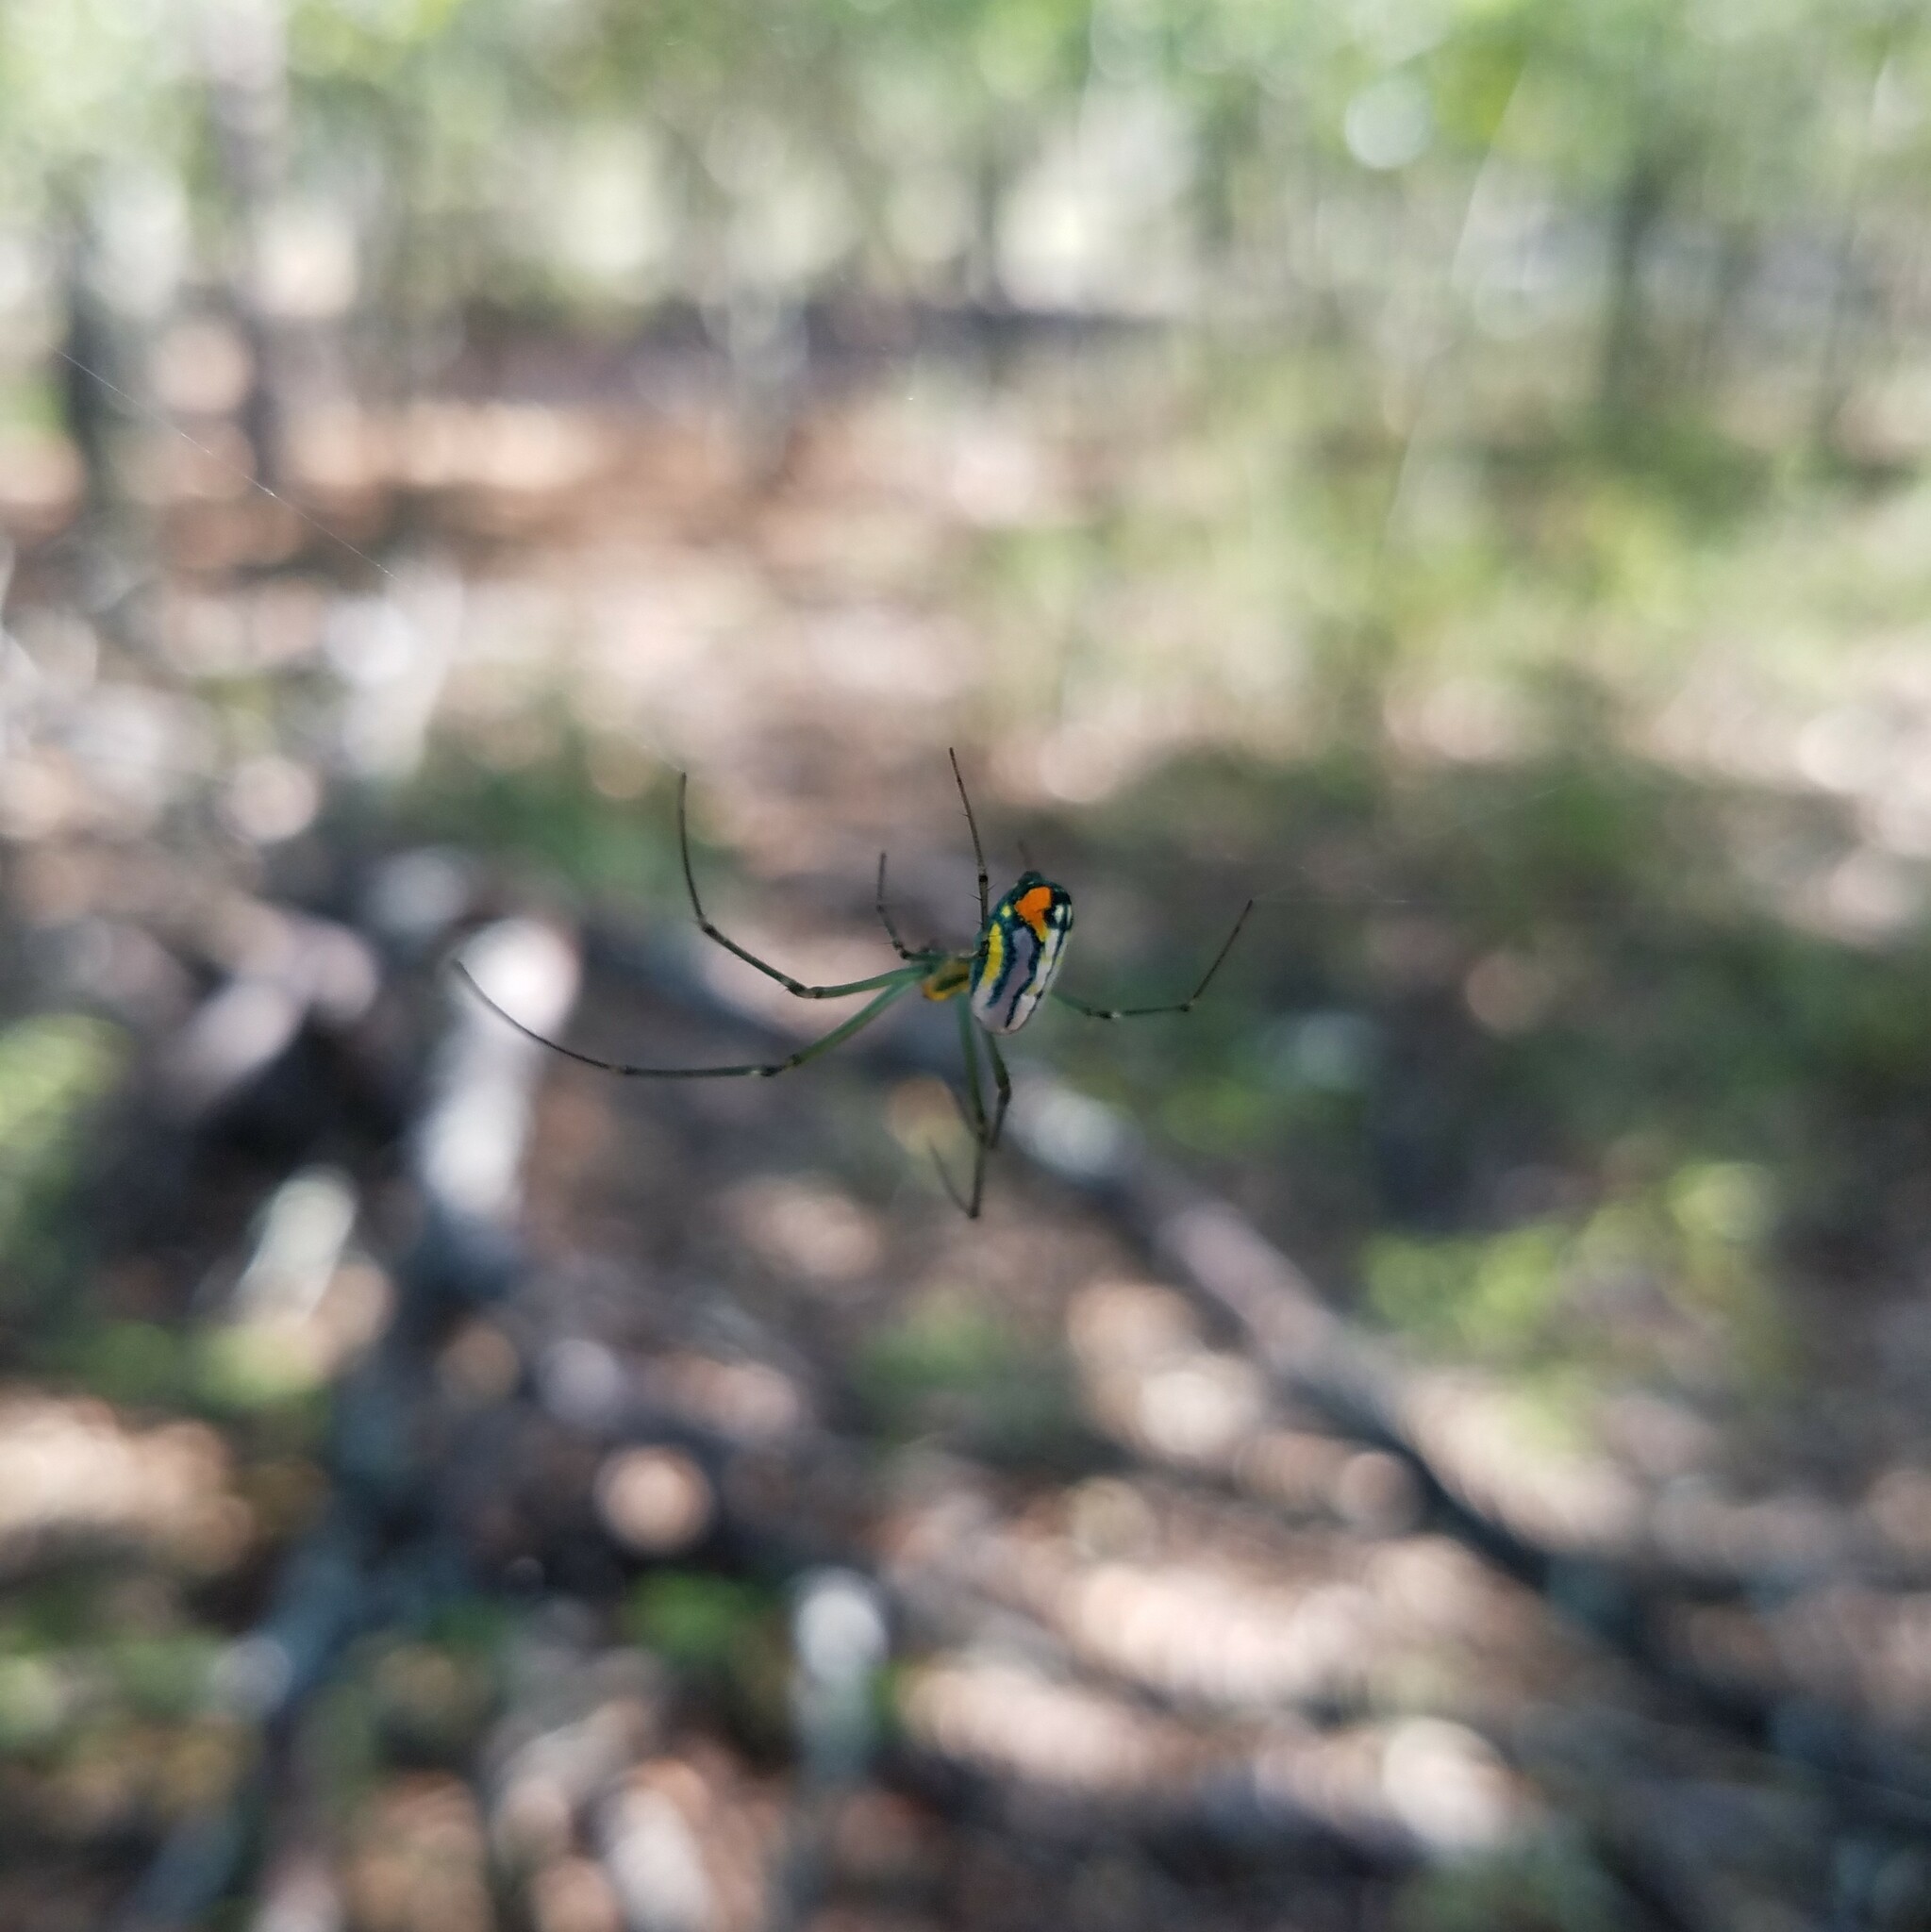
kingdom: Animalia
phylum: Arthropoda
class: Arachnida
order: Araneae
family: Tetragnathidae
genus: Leucauge
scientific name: Leucauge argyrobapta
